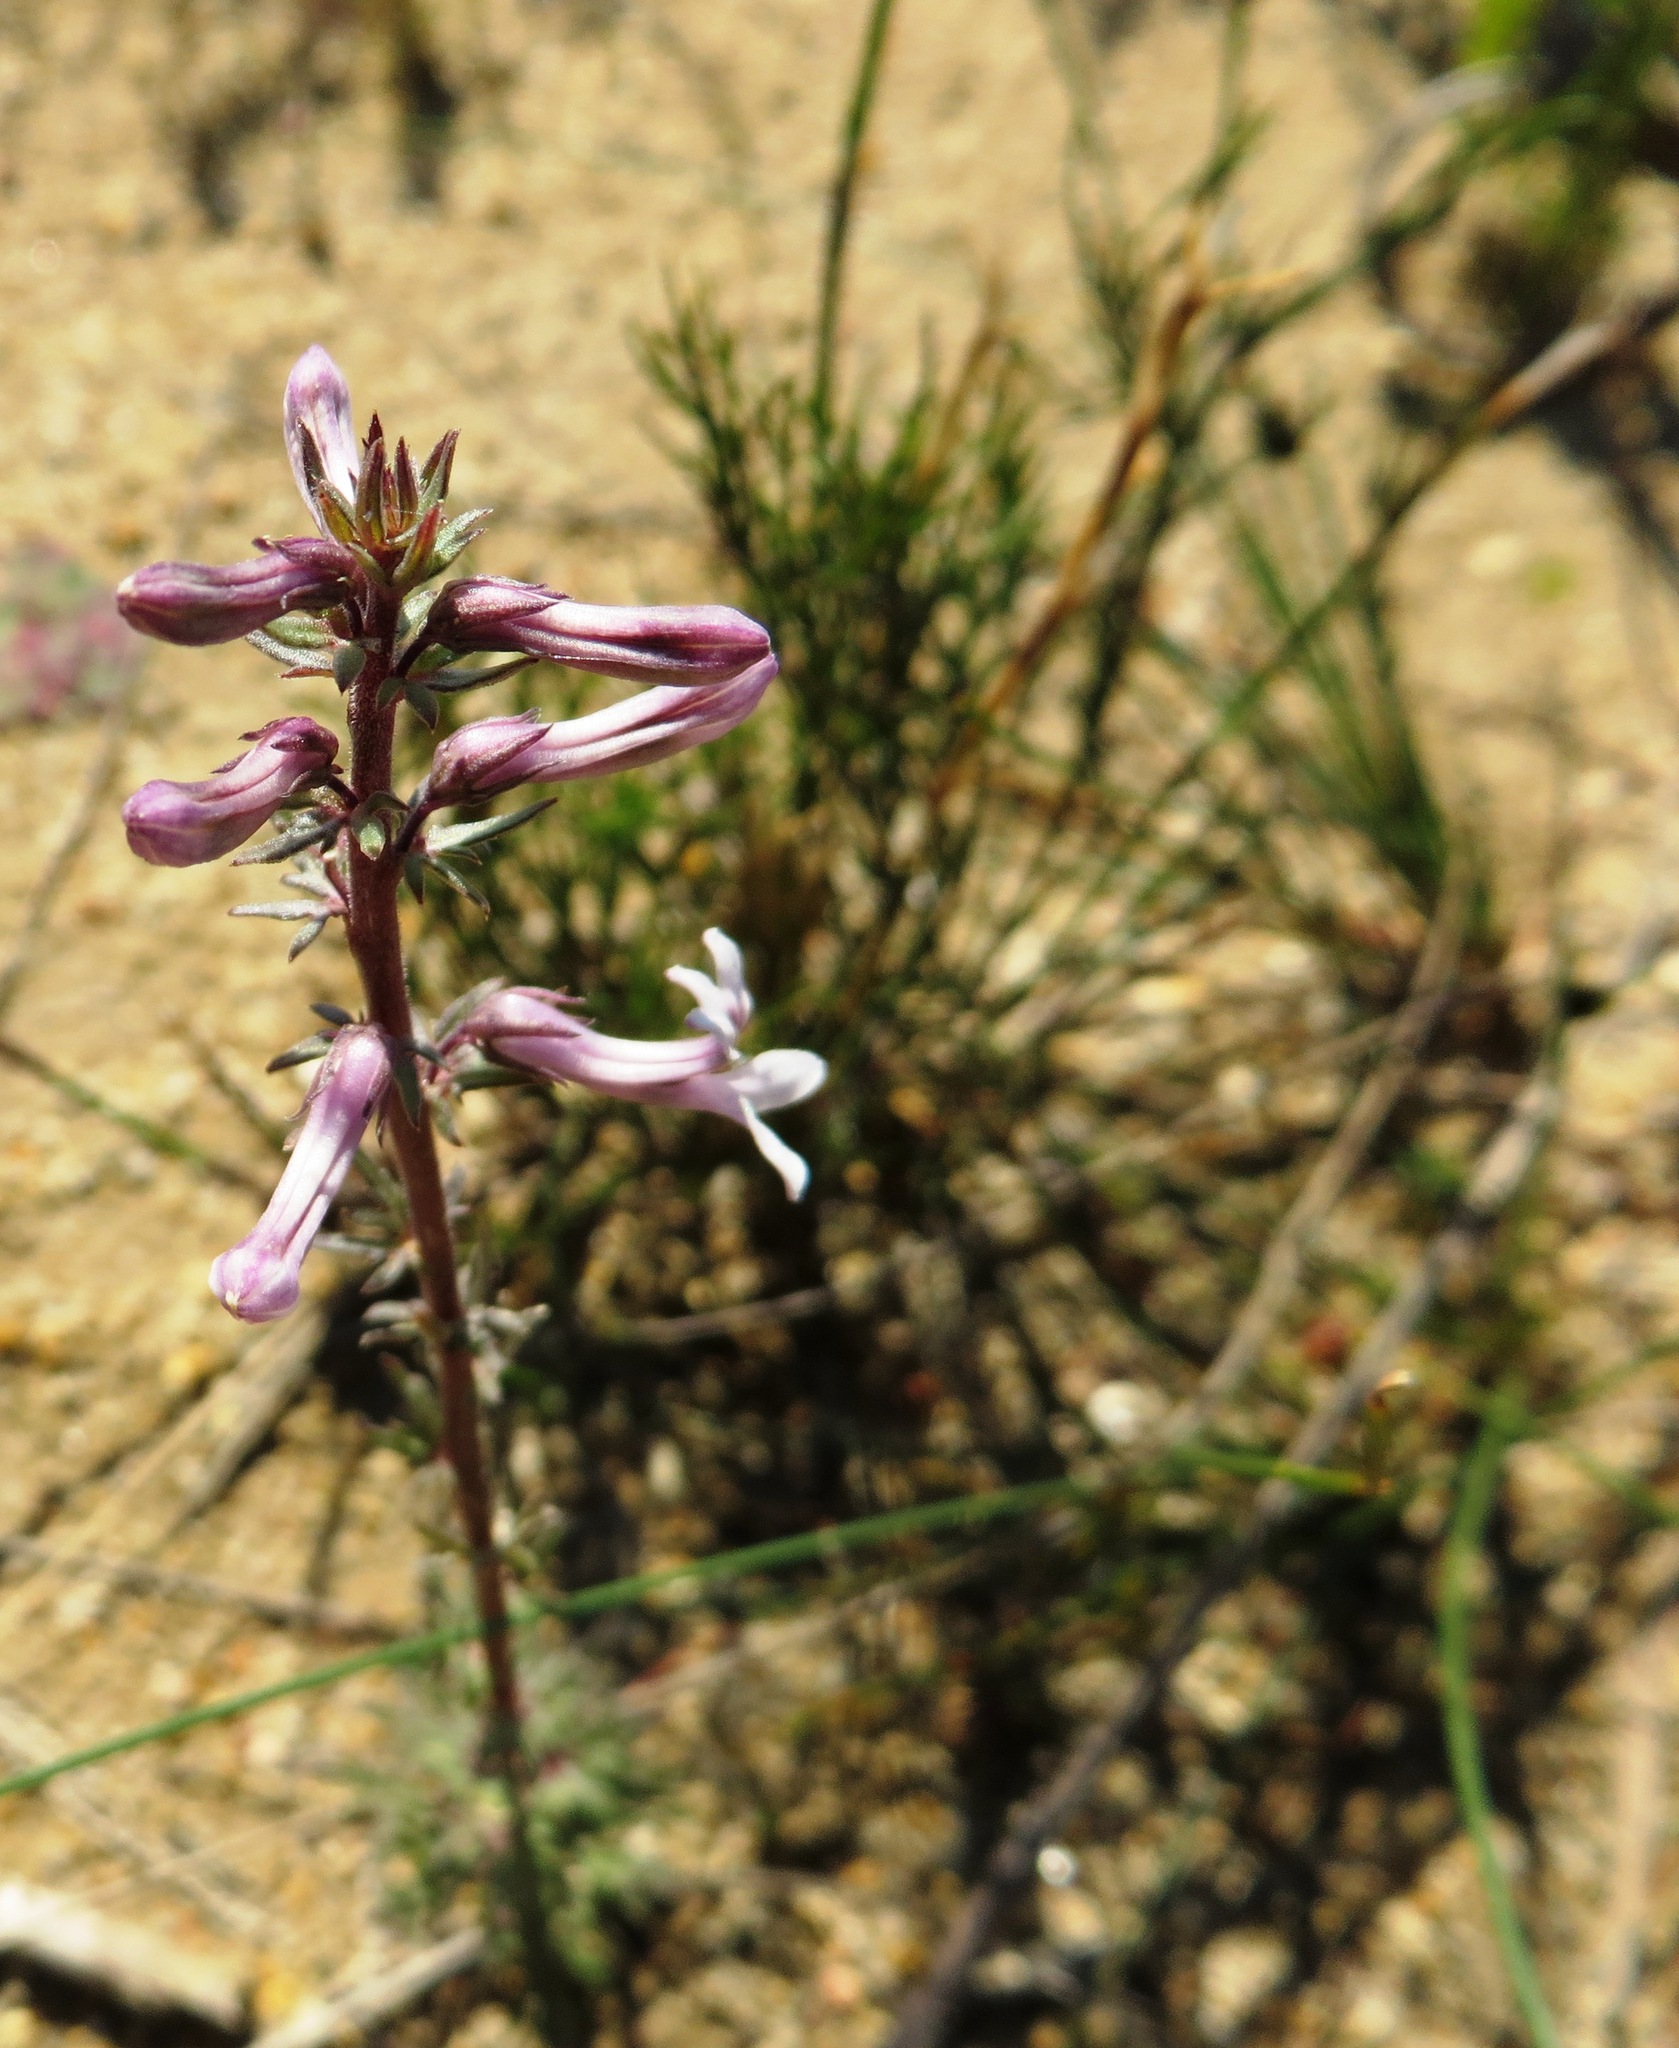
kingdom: Plantae
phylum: Tracheophyta
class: Magnoliopsida
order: Asterales
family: Campanulaceae
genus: Cyphia
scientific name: Cyphia bulbosa
